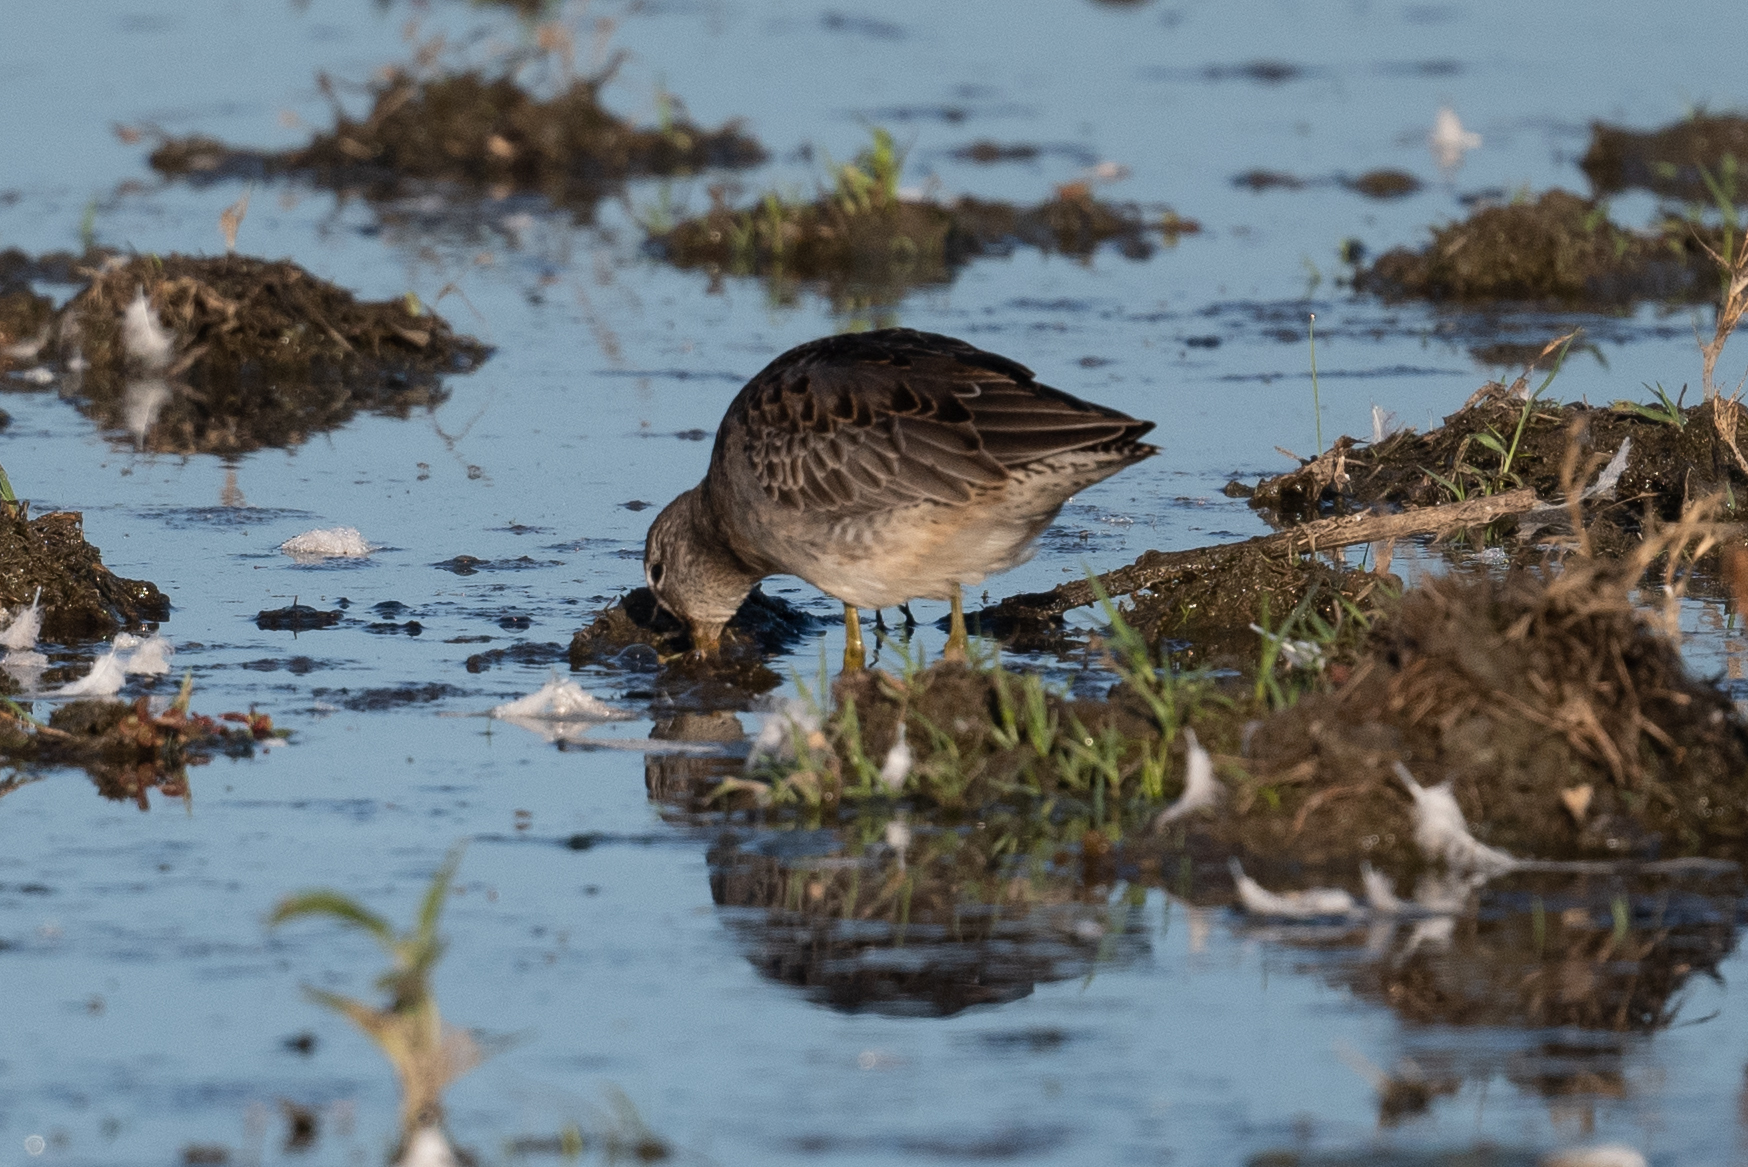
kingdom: Animalia
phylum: Chordata
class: Aves
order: Charadriiformes
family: Scolopacidae
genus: Calidris
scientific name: Calidris minutilla
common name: Least sandpiper
